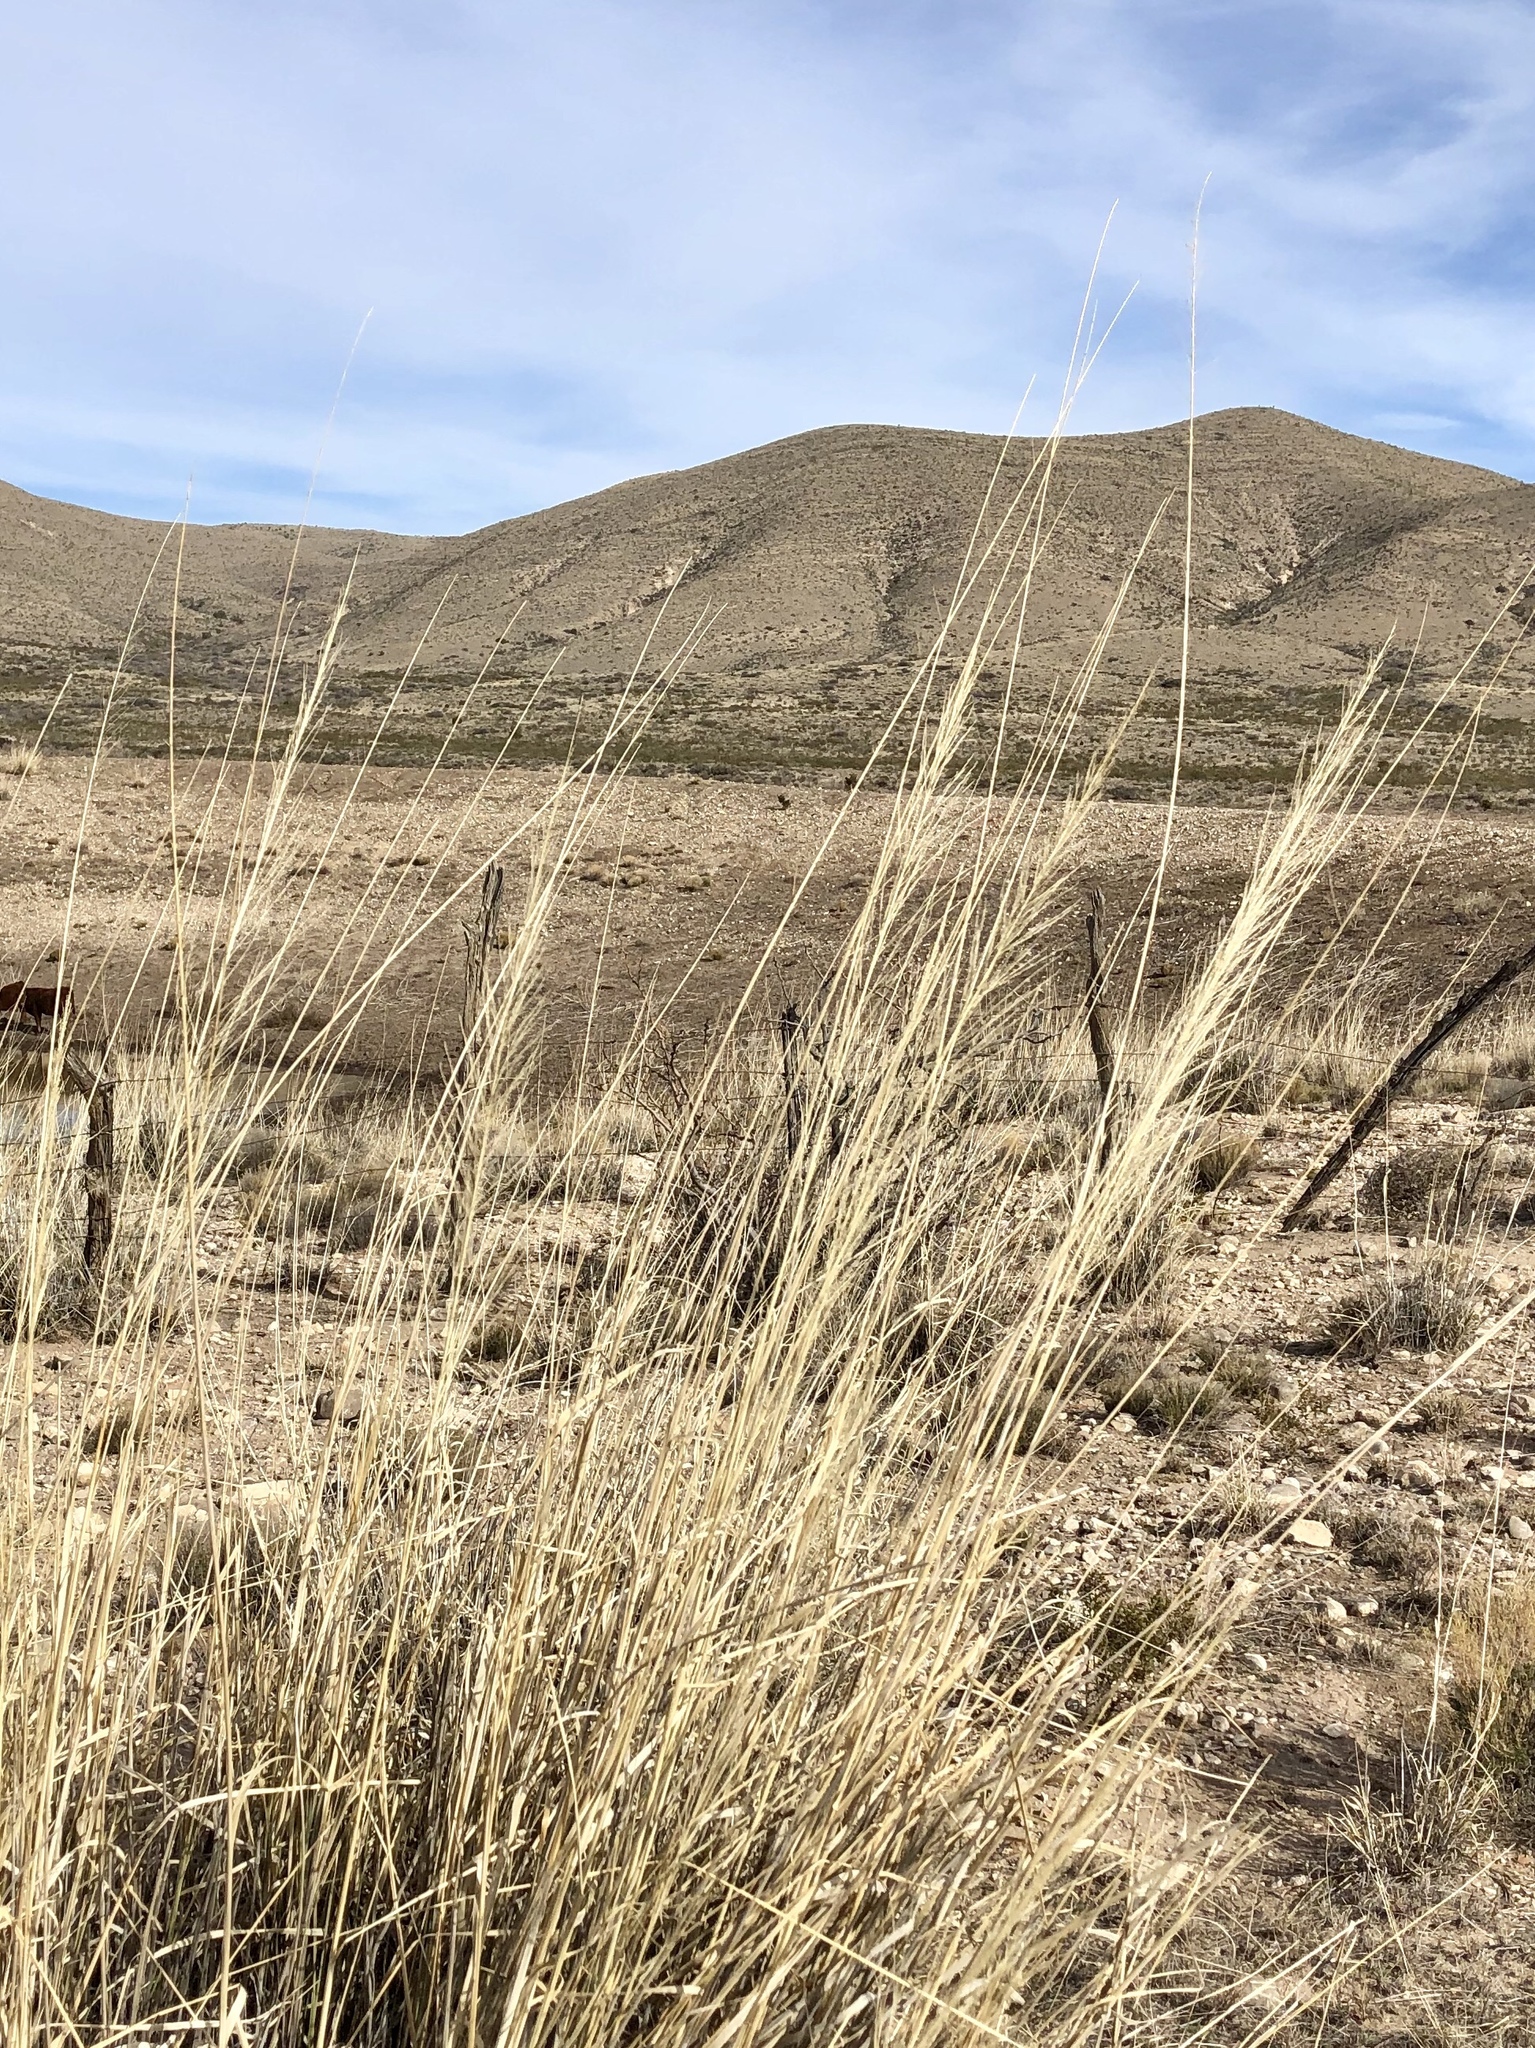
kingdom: Plantae
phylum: Tracheophyta
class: Liliopsida
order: Poales
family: Poaceae
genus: Sporobolus
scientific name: Sporobolus wrightii
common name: Big alkali sacaton
